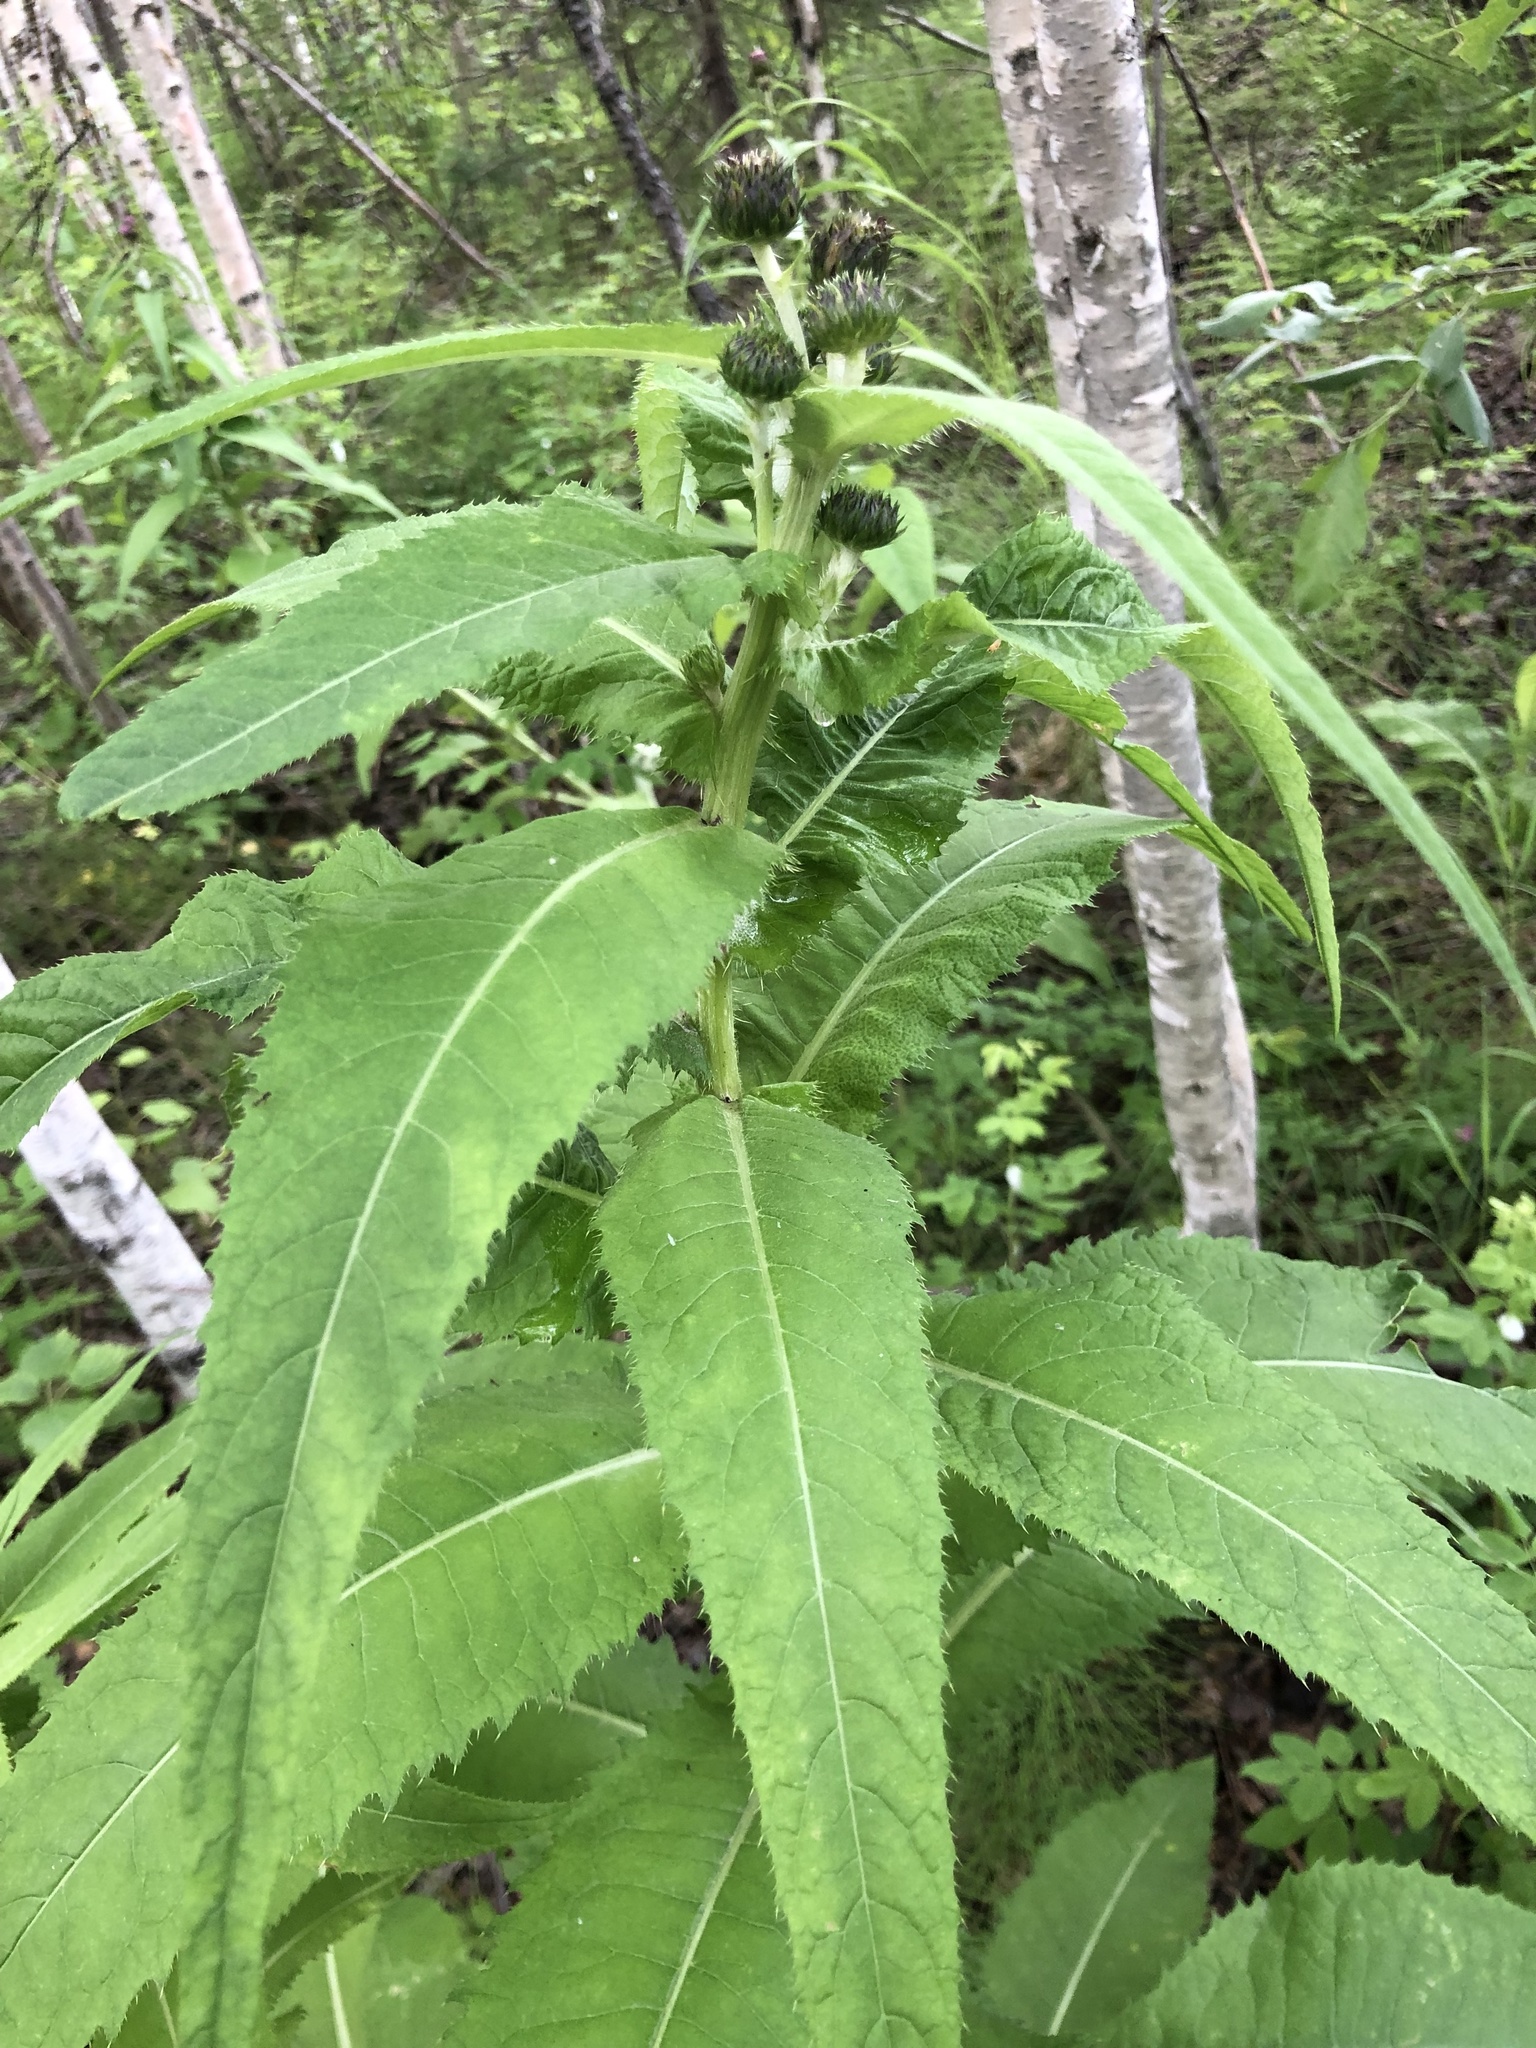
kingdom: Plantae
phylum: Tracheophyta
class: Magnoliopsida
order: Asterales
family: Asteraceae
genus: Cirsium
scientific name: Cirsium helenioides
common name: Melancholy thistle
